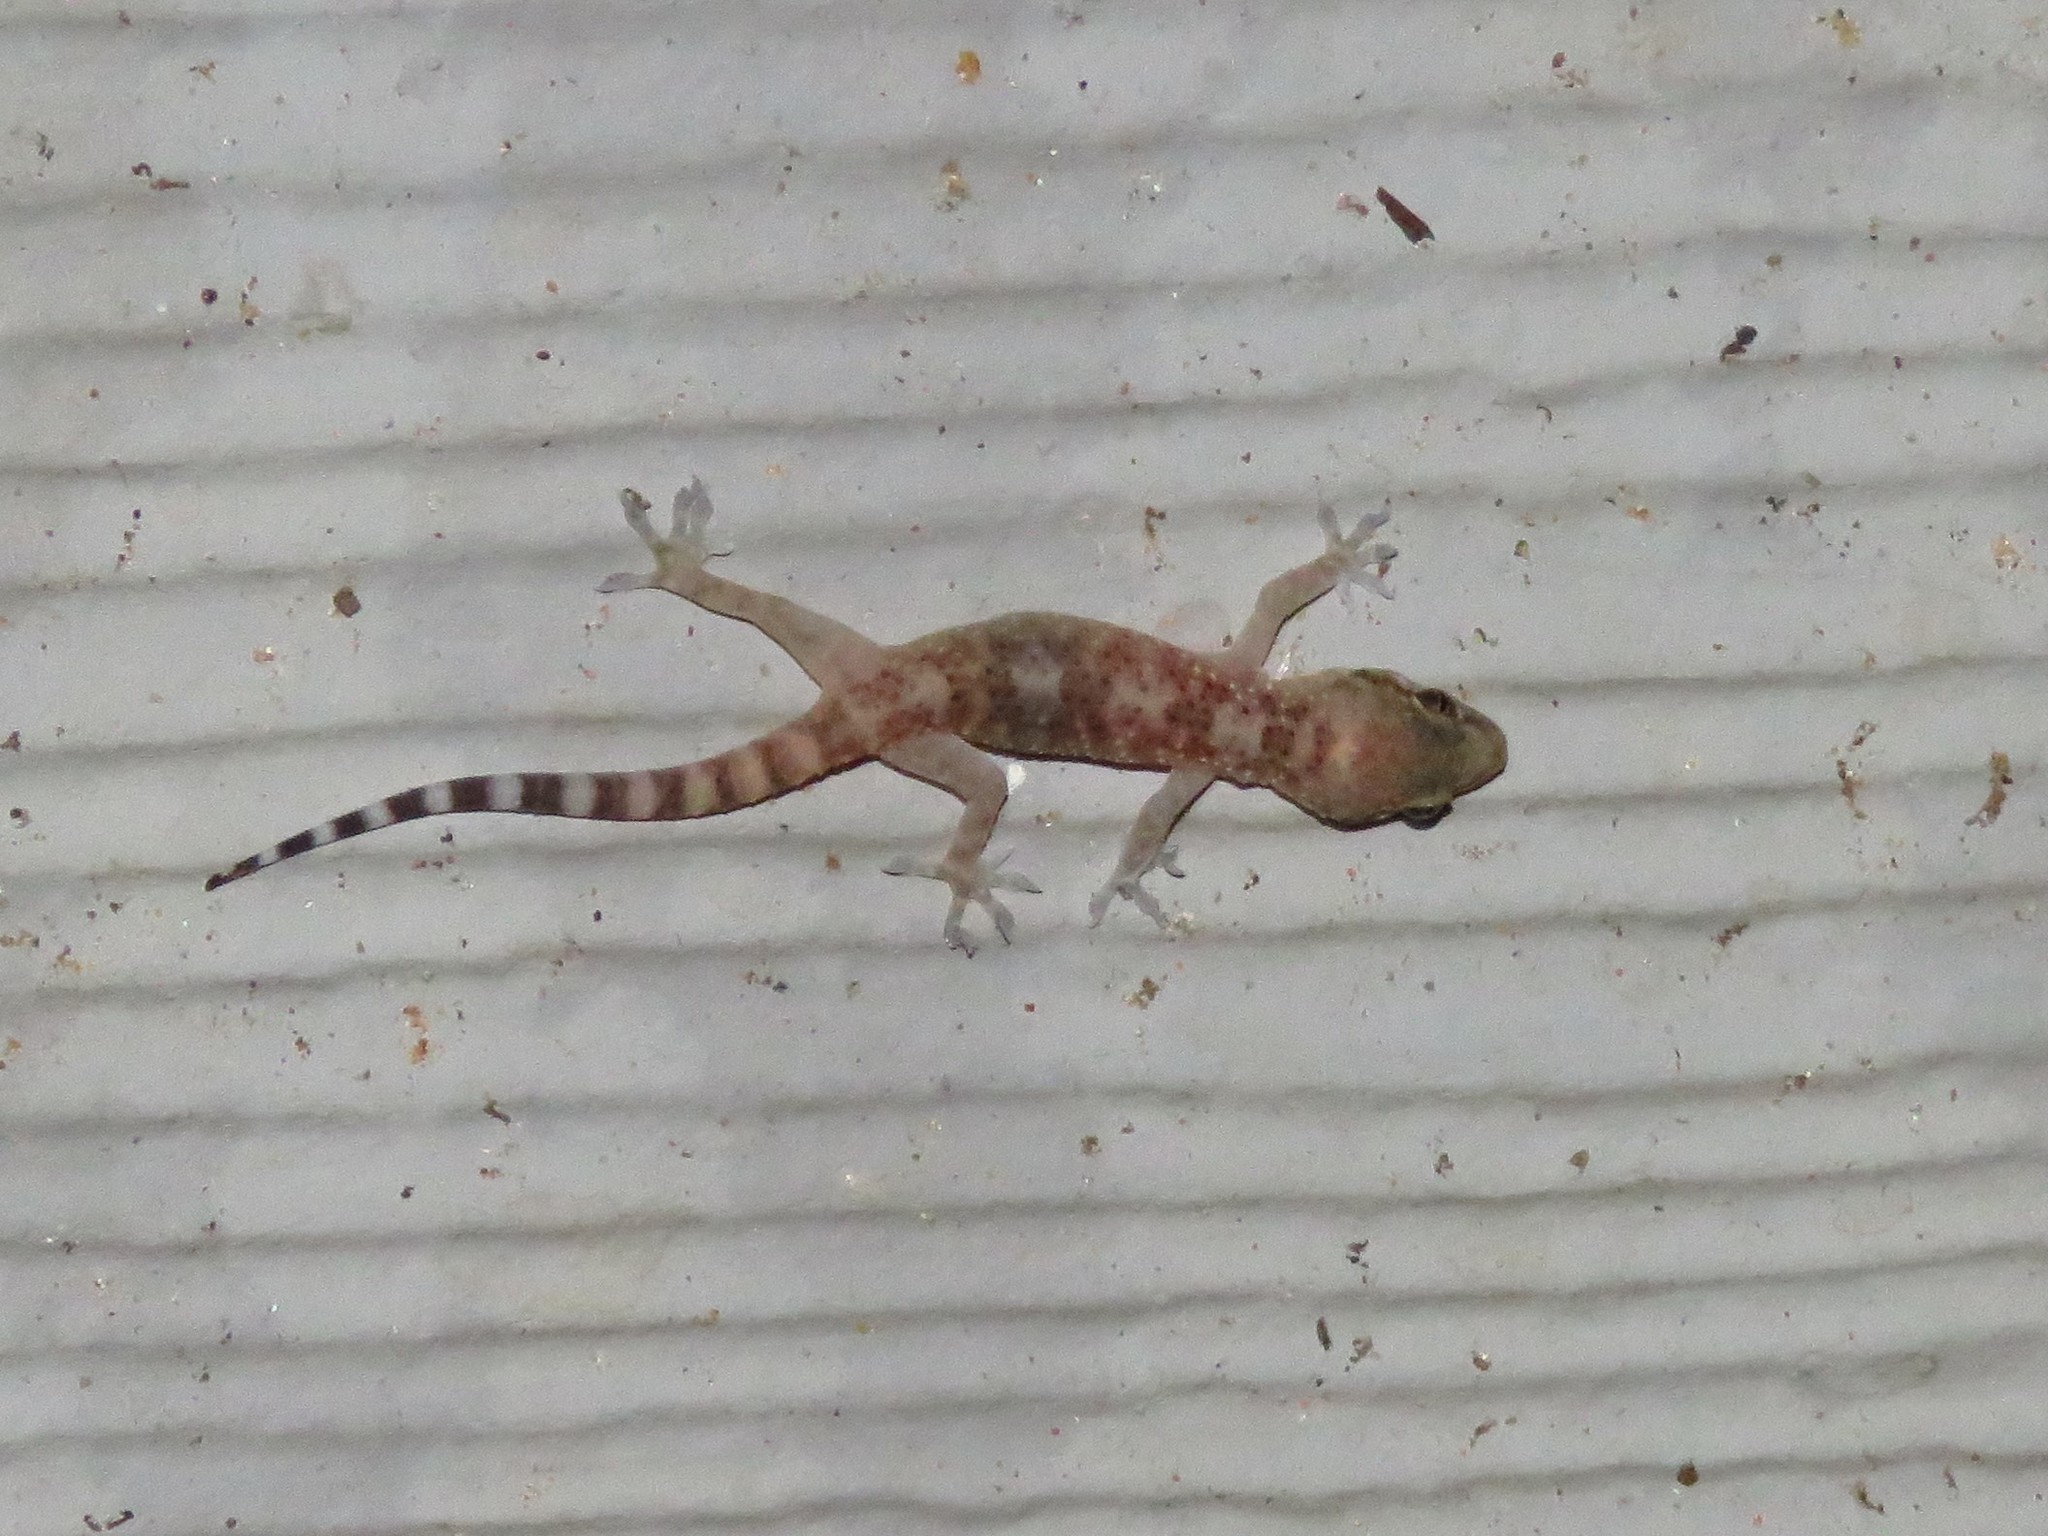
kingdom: Animalia
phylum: Chordata
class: Squamata
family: Gekkonidae
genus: Hemidactylus
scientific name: Hemidactylus turcicus
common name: Turkish gecko
